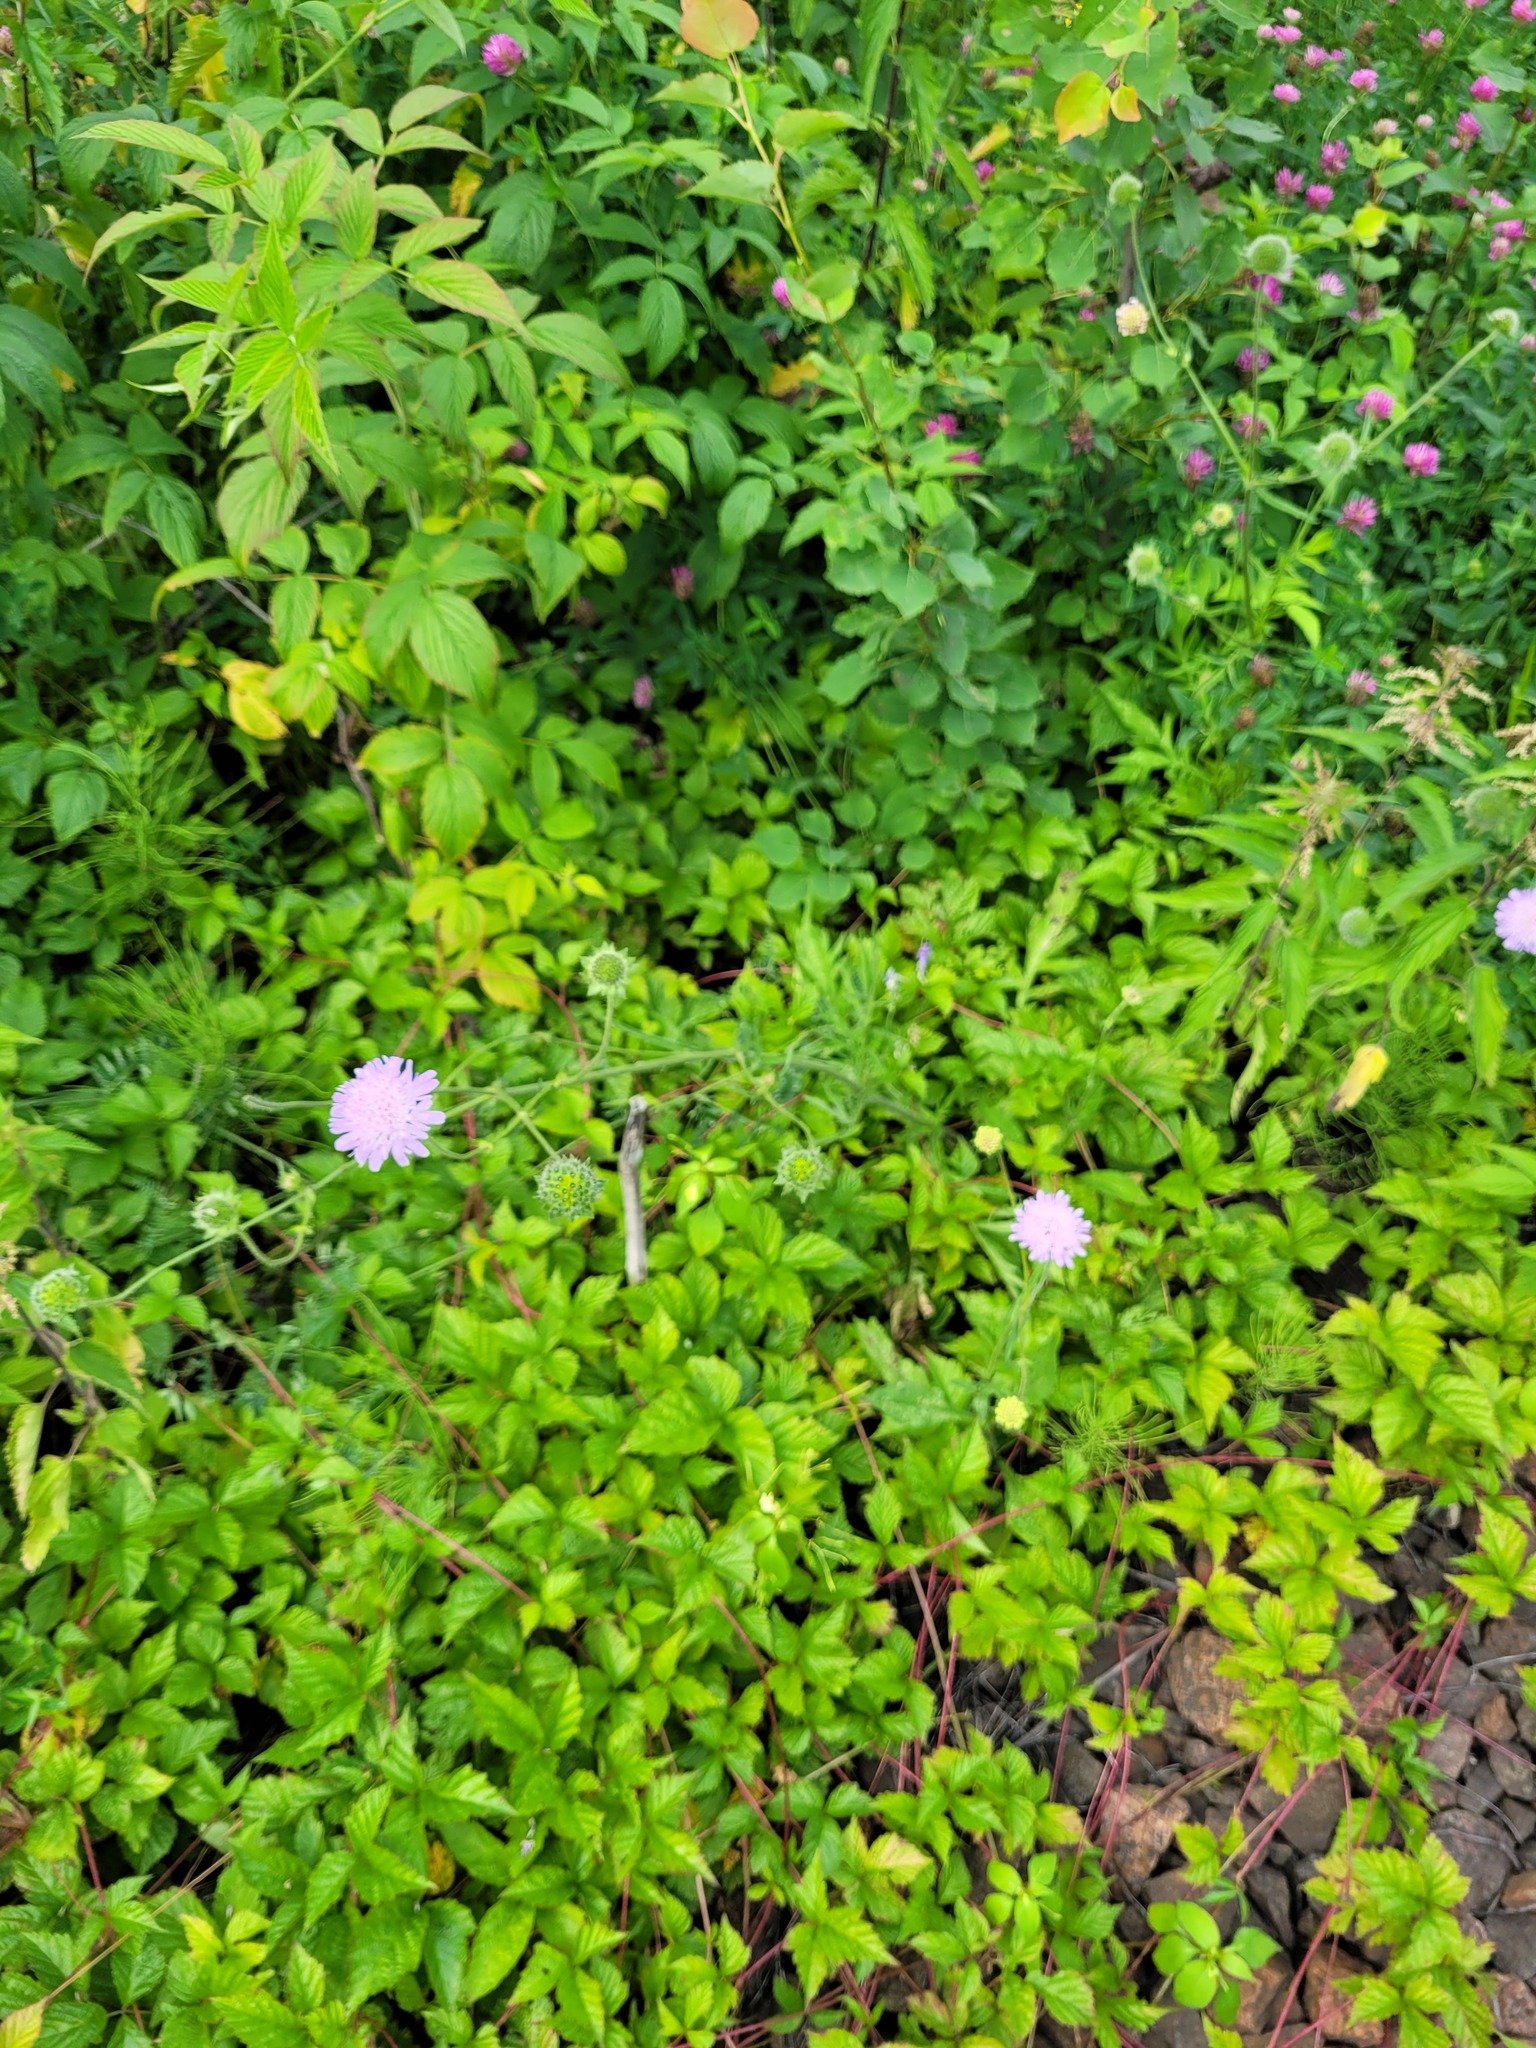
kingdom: Plantae
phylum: Tracheophyta
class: Magnoliopsida
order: Dipsacales
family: Caprifoliaceae
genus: Knautia
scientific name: Knautia arvensis
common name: Field scabiosa
